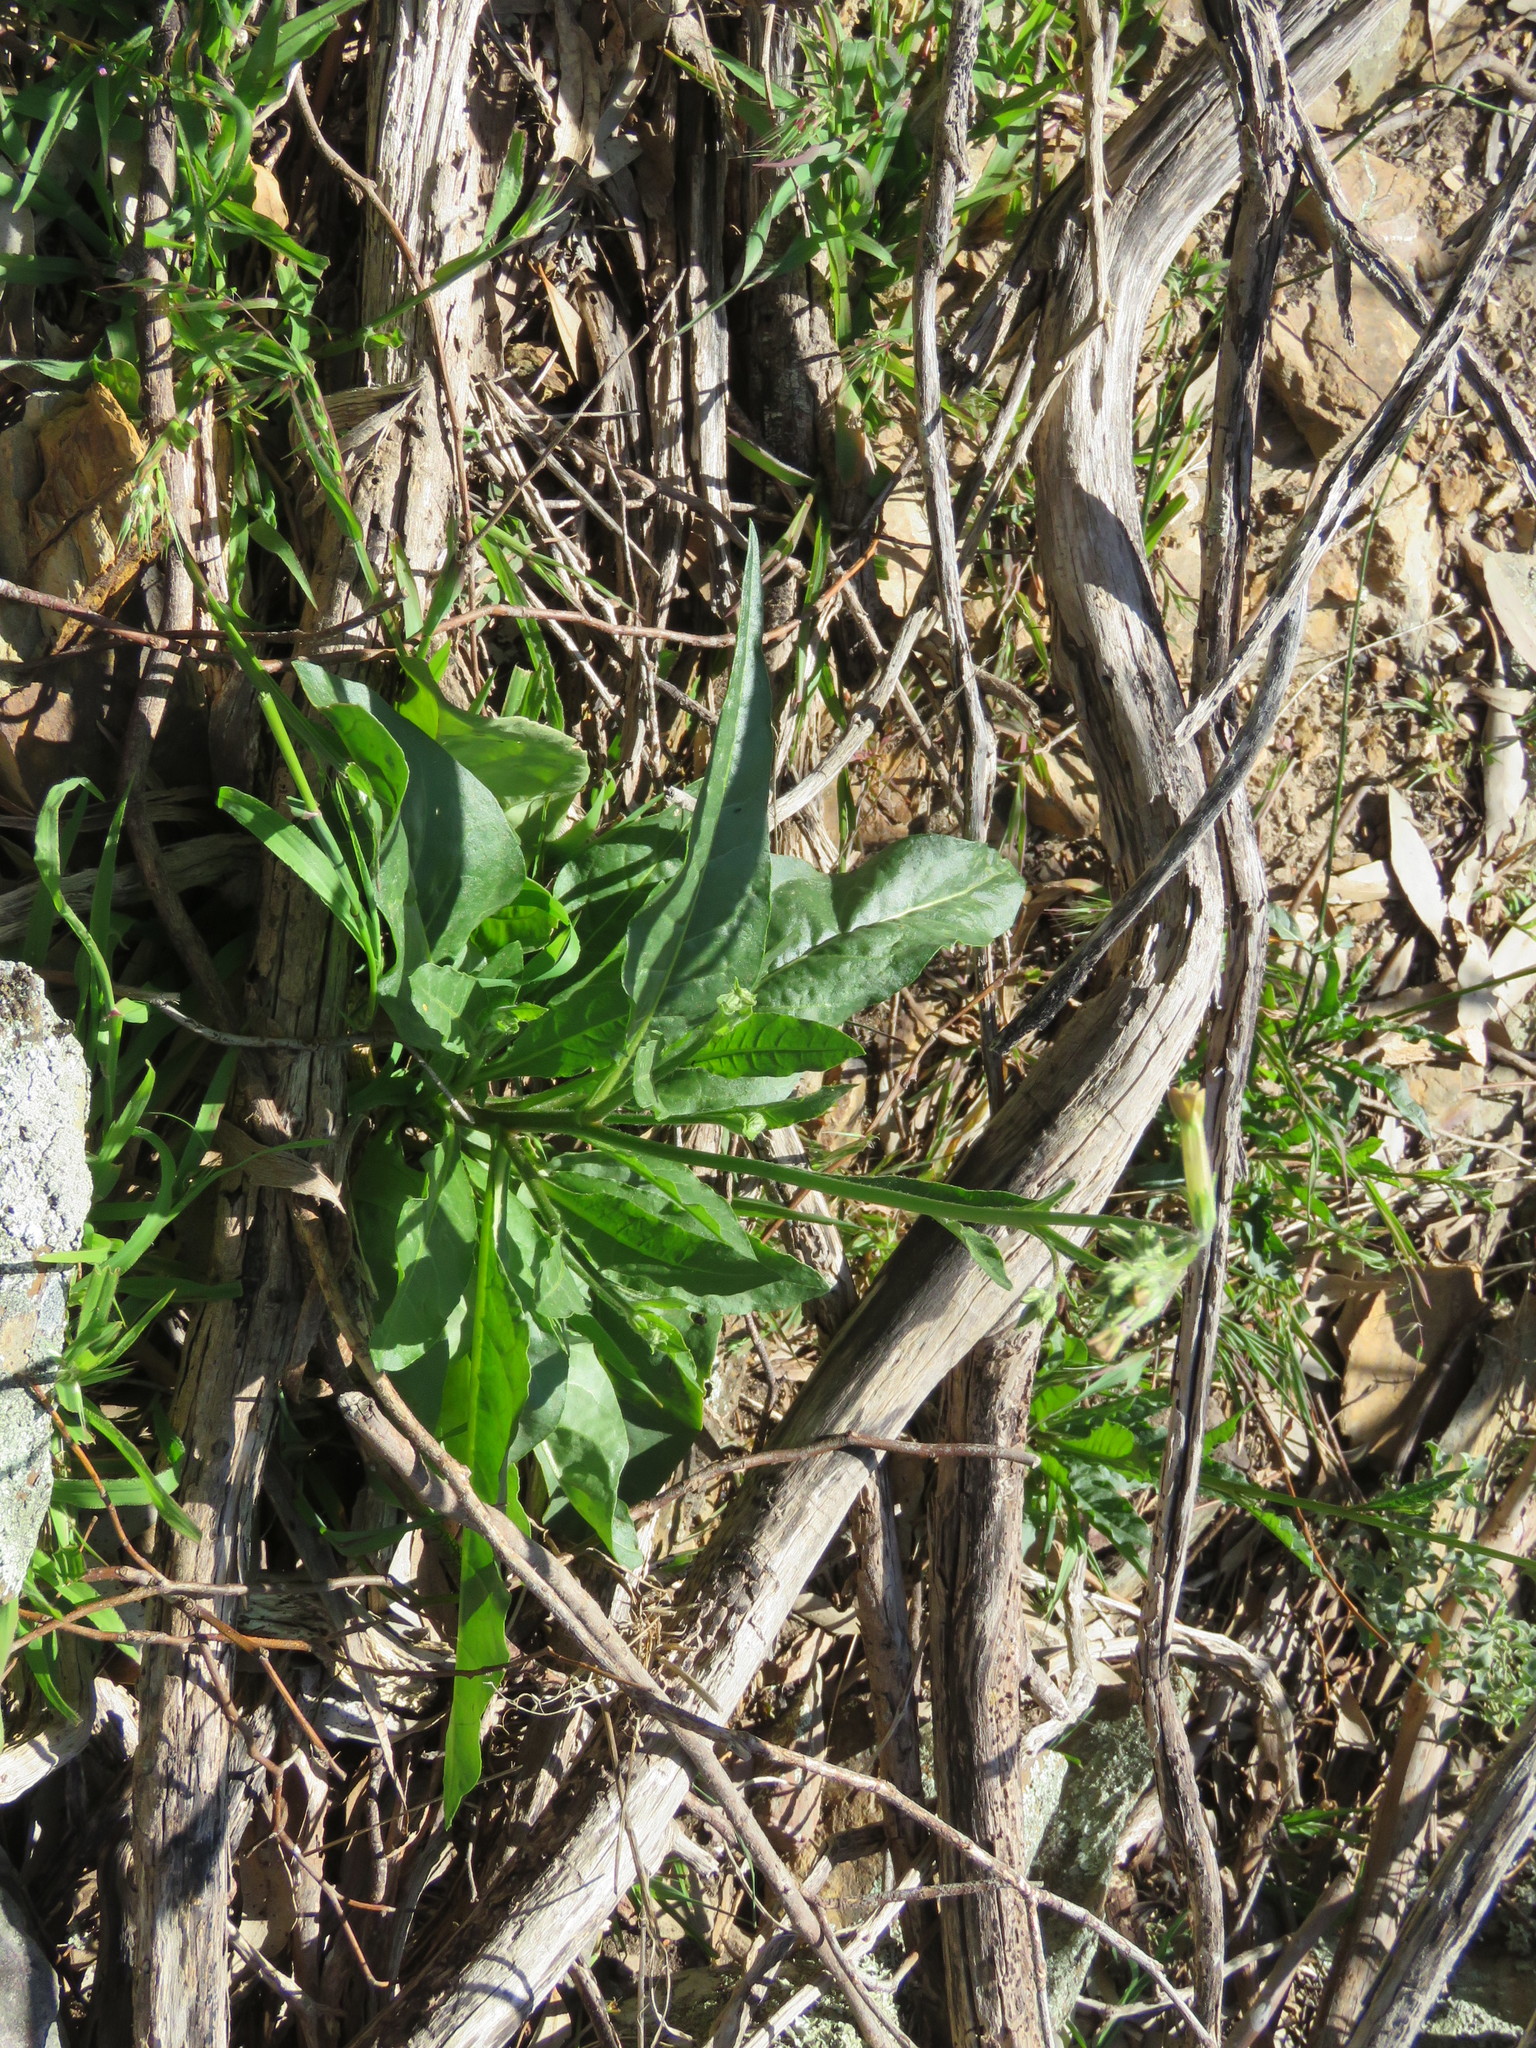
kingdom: Plantae
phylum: Tracheophyta
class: Magnoliopsida
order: Solanales
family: Solanaceae
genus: Nicotiana
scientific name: Nicotiana suaveolens
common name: Australian tobacco
